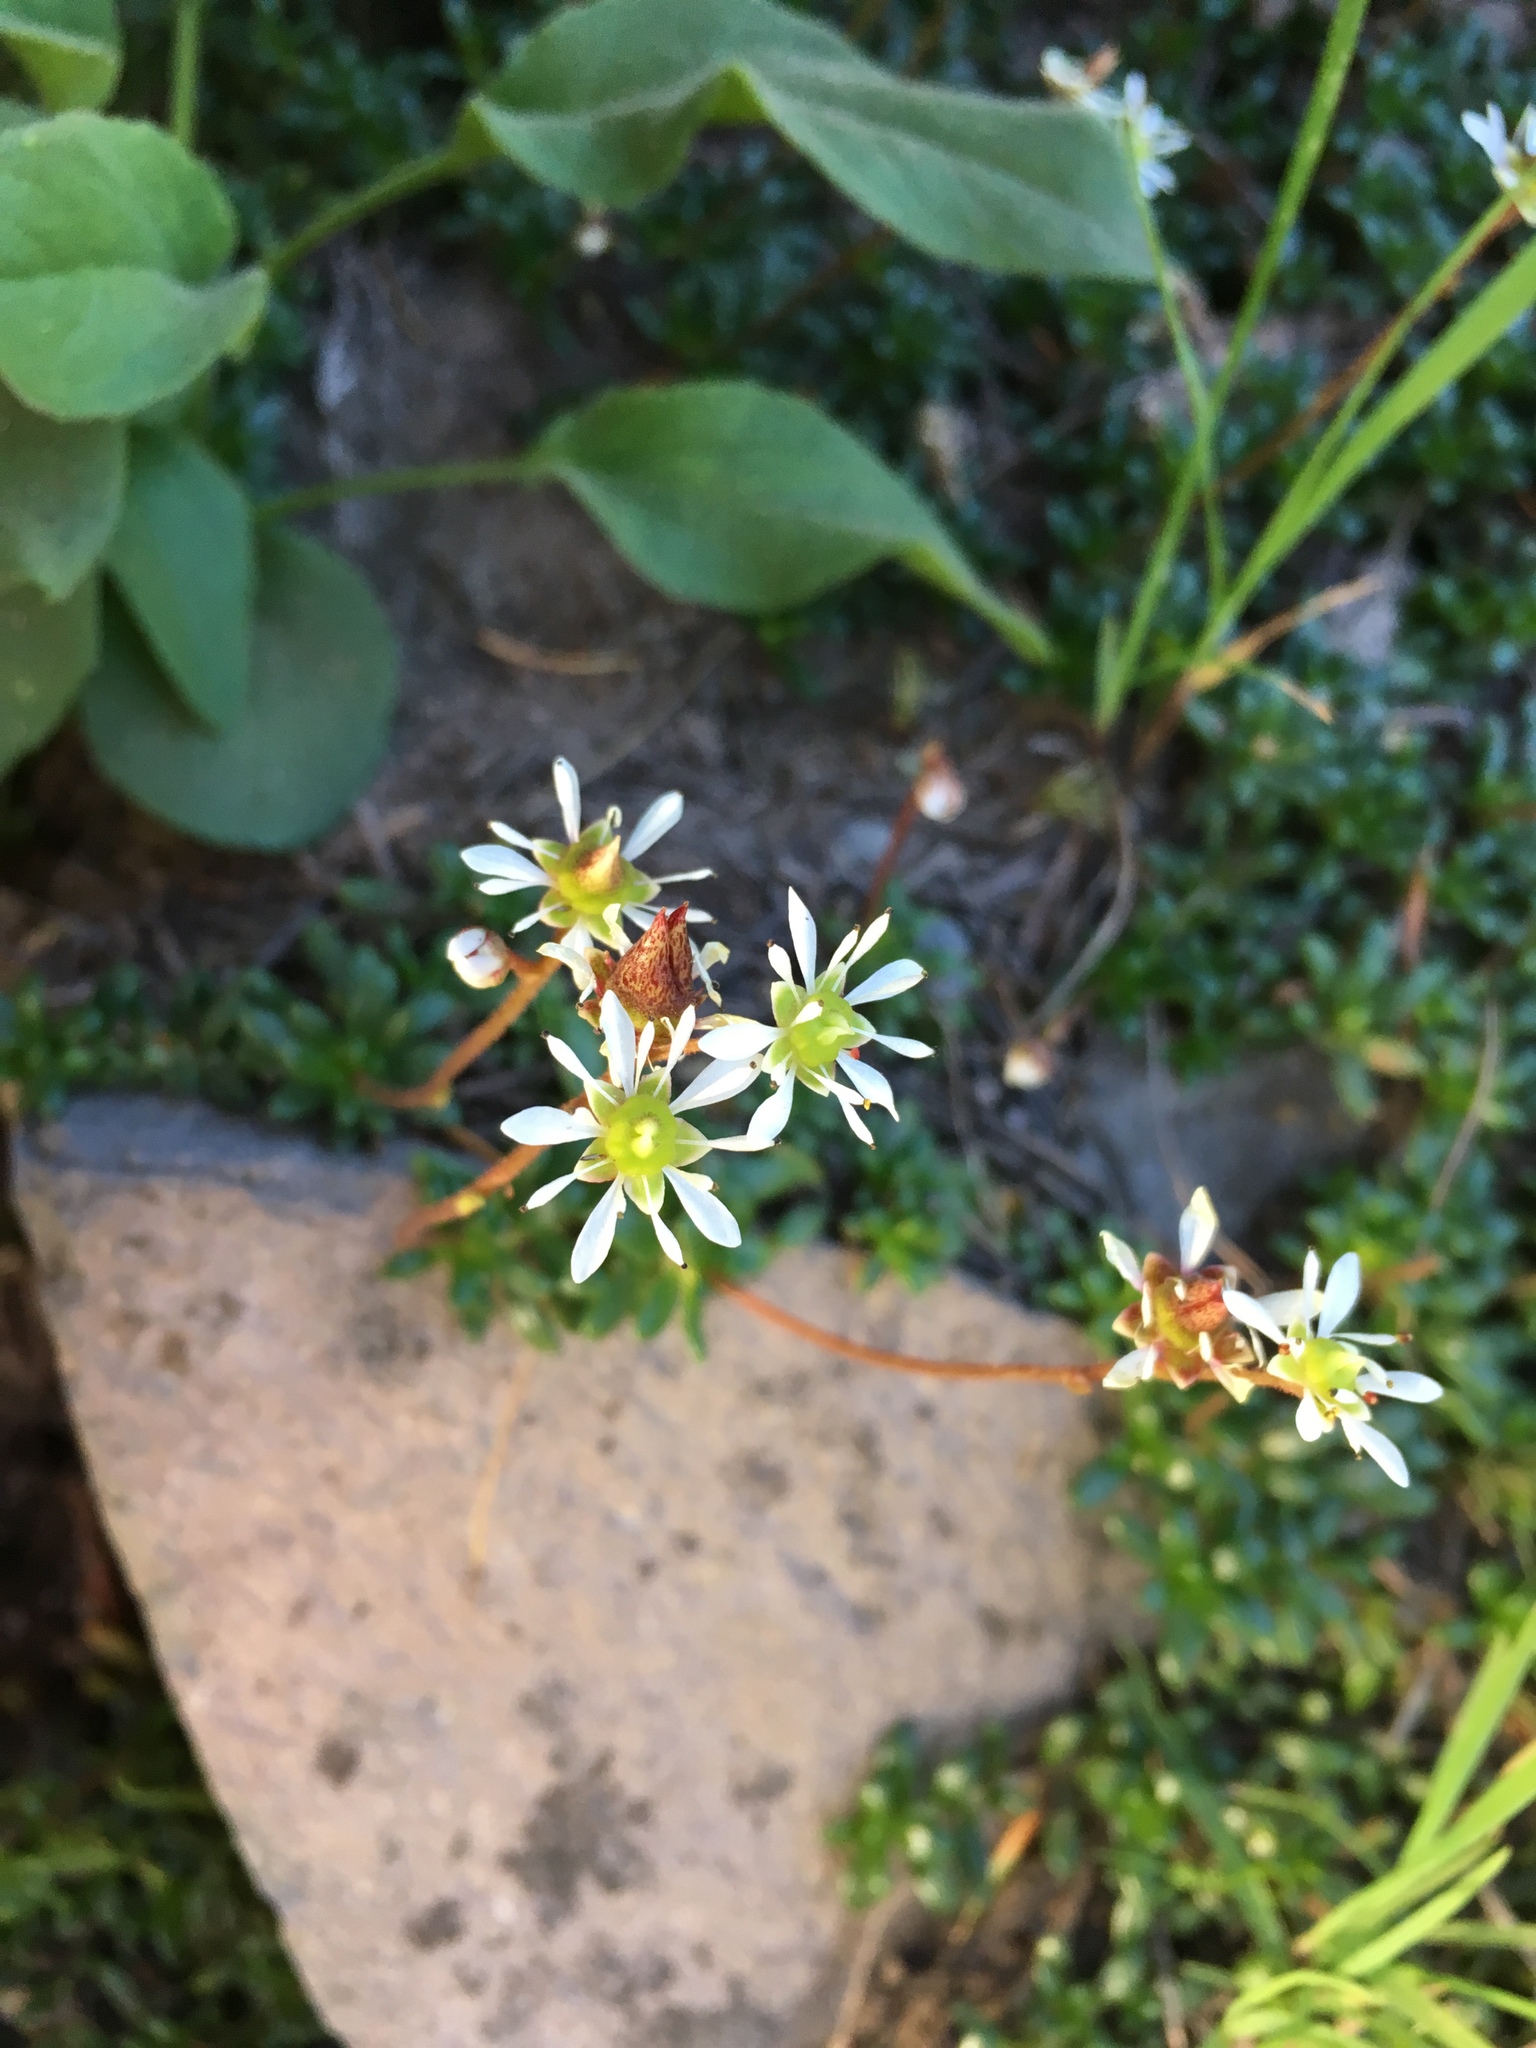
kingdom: Plantae
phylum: Tracheophyta
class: Magnoliopsida
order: Saxifragales
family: Saxifragaceae
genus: Micranthes
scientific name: Micranthes tolmiei
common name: Tolmie's saxifrage
